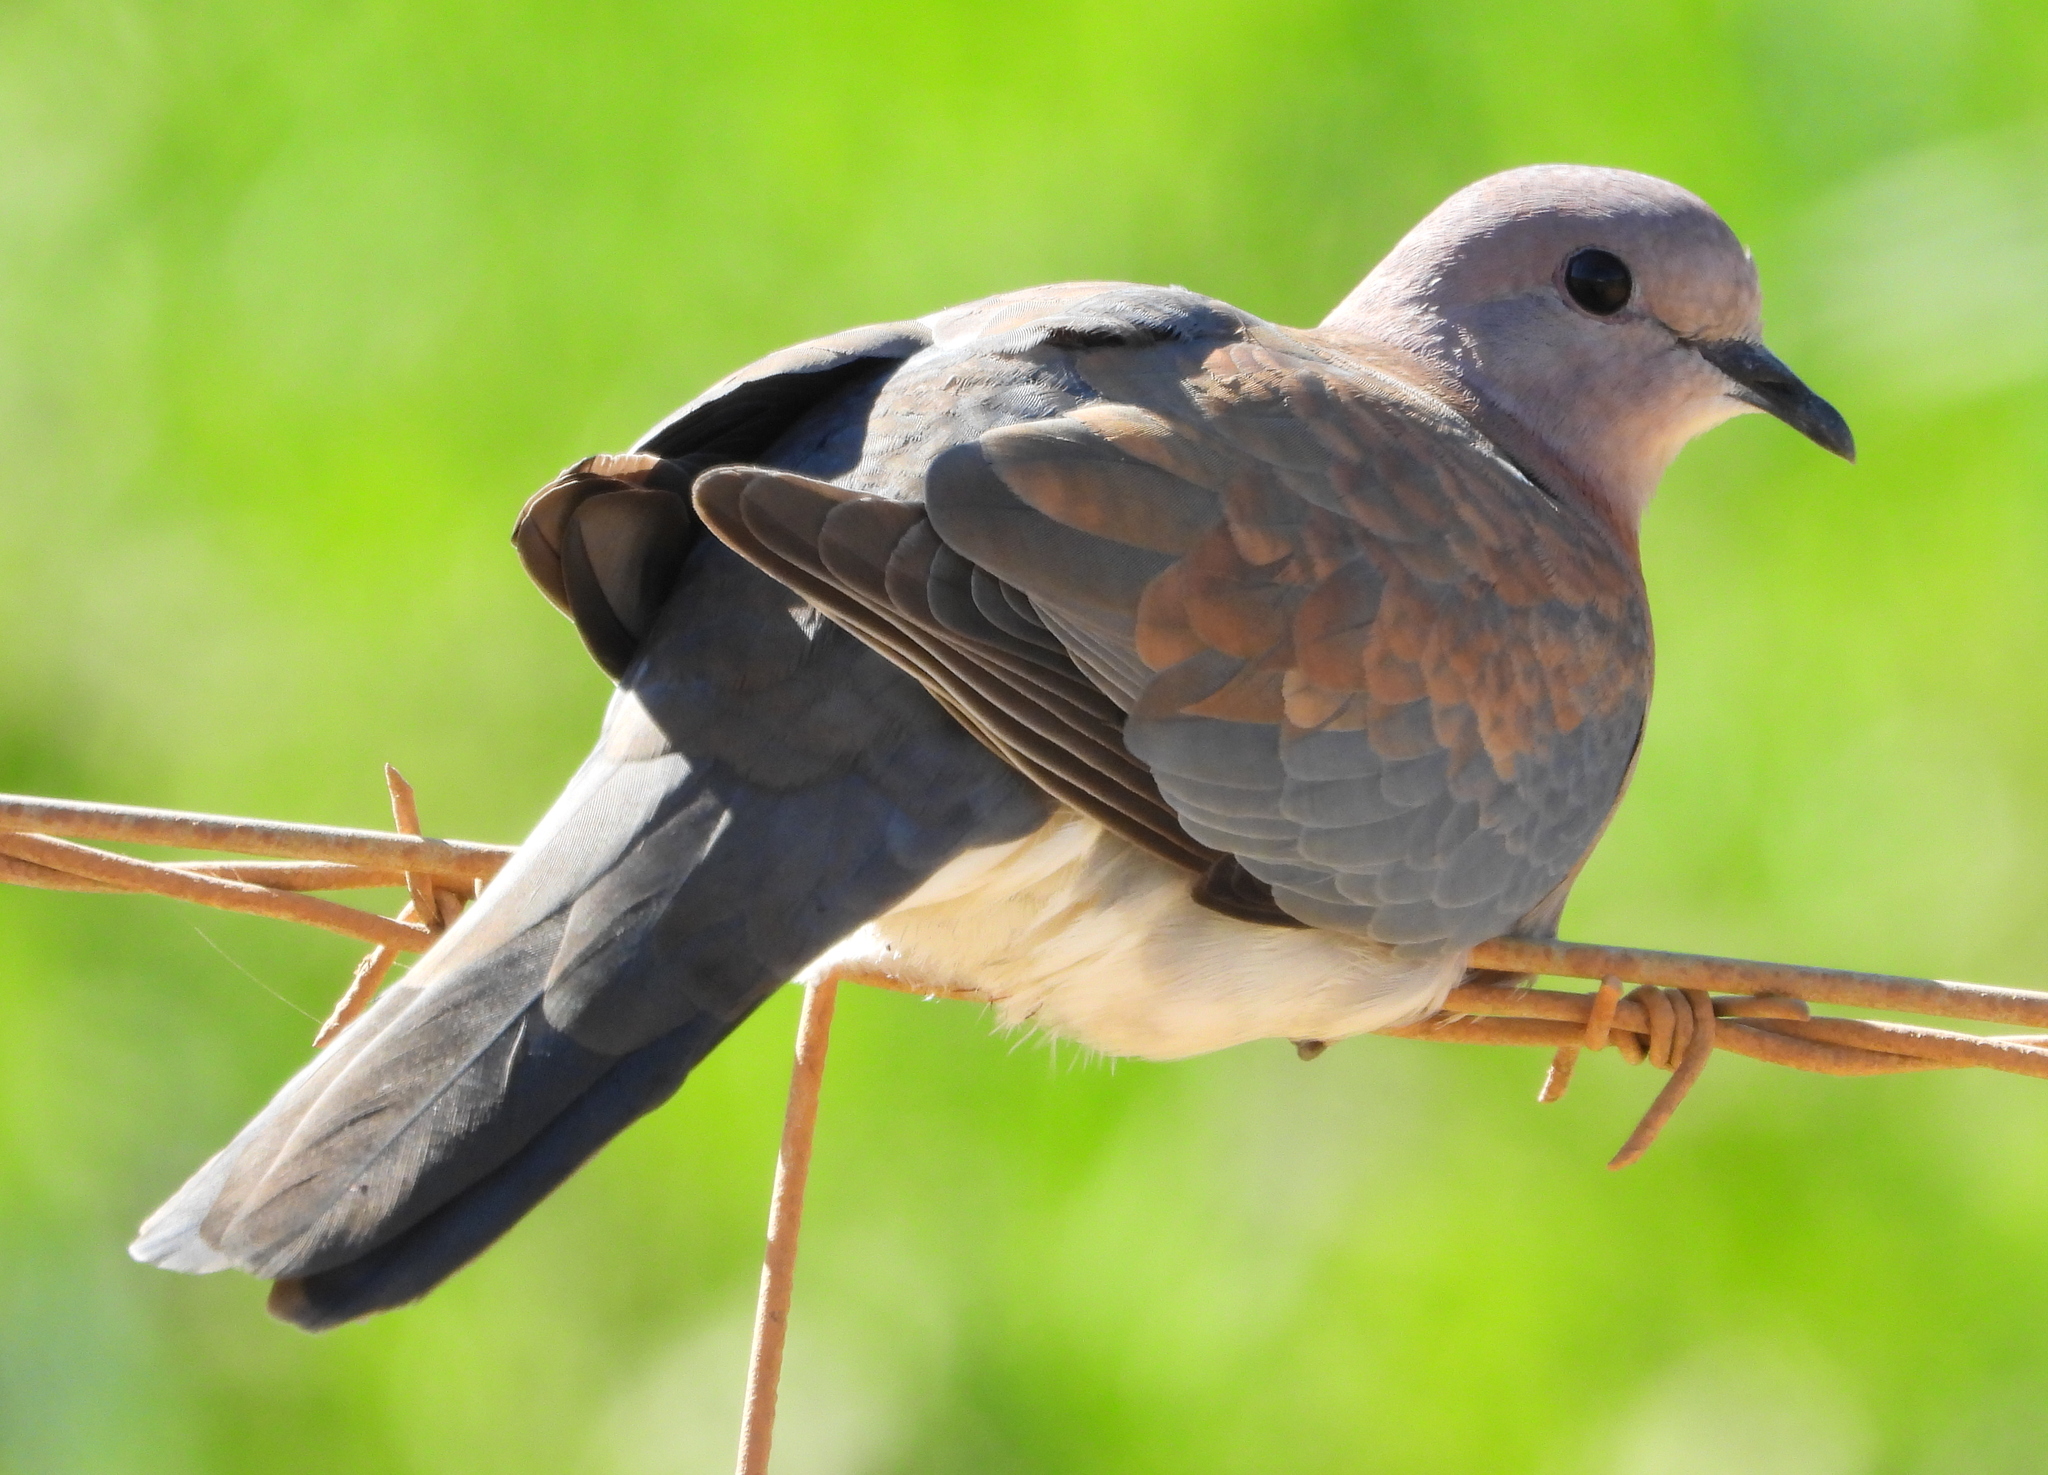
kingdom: Animalia
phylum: Chordata
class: Aves
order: Columbiformes
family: Columbidae
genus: Spilopelia
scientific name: Spilopelia senegalensis
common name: Laughing dove
